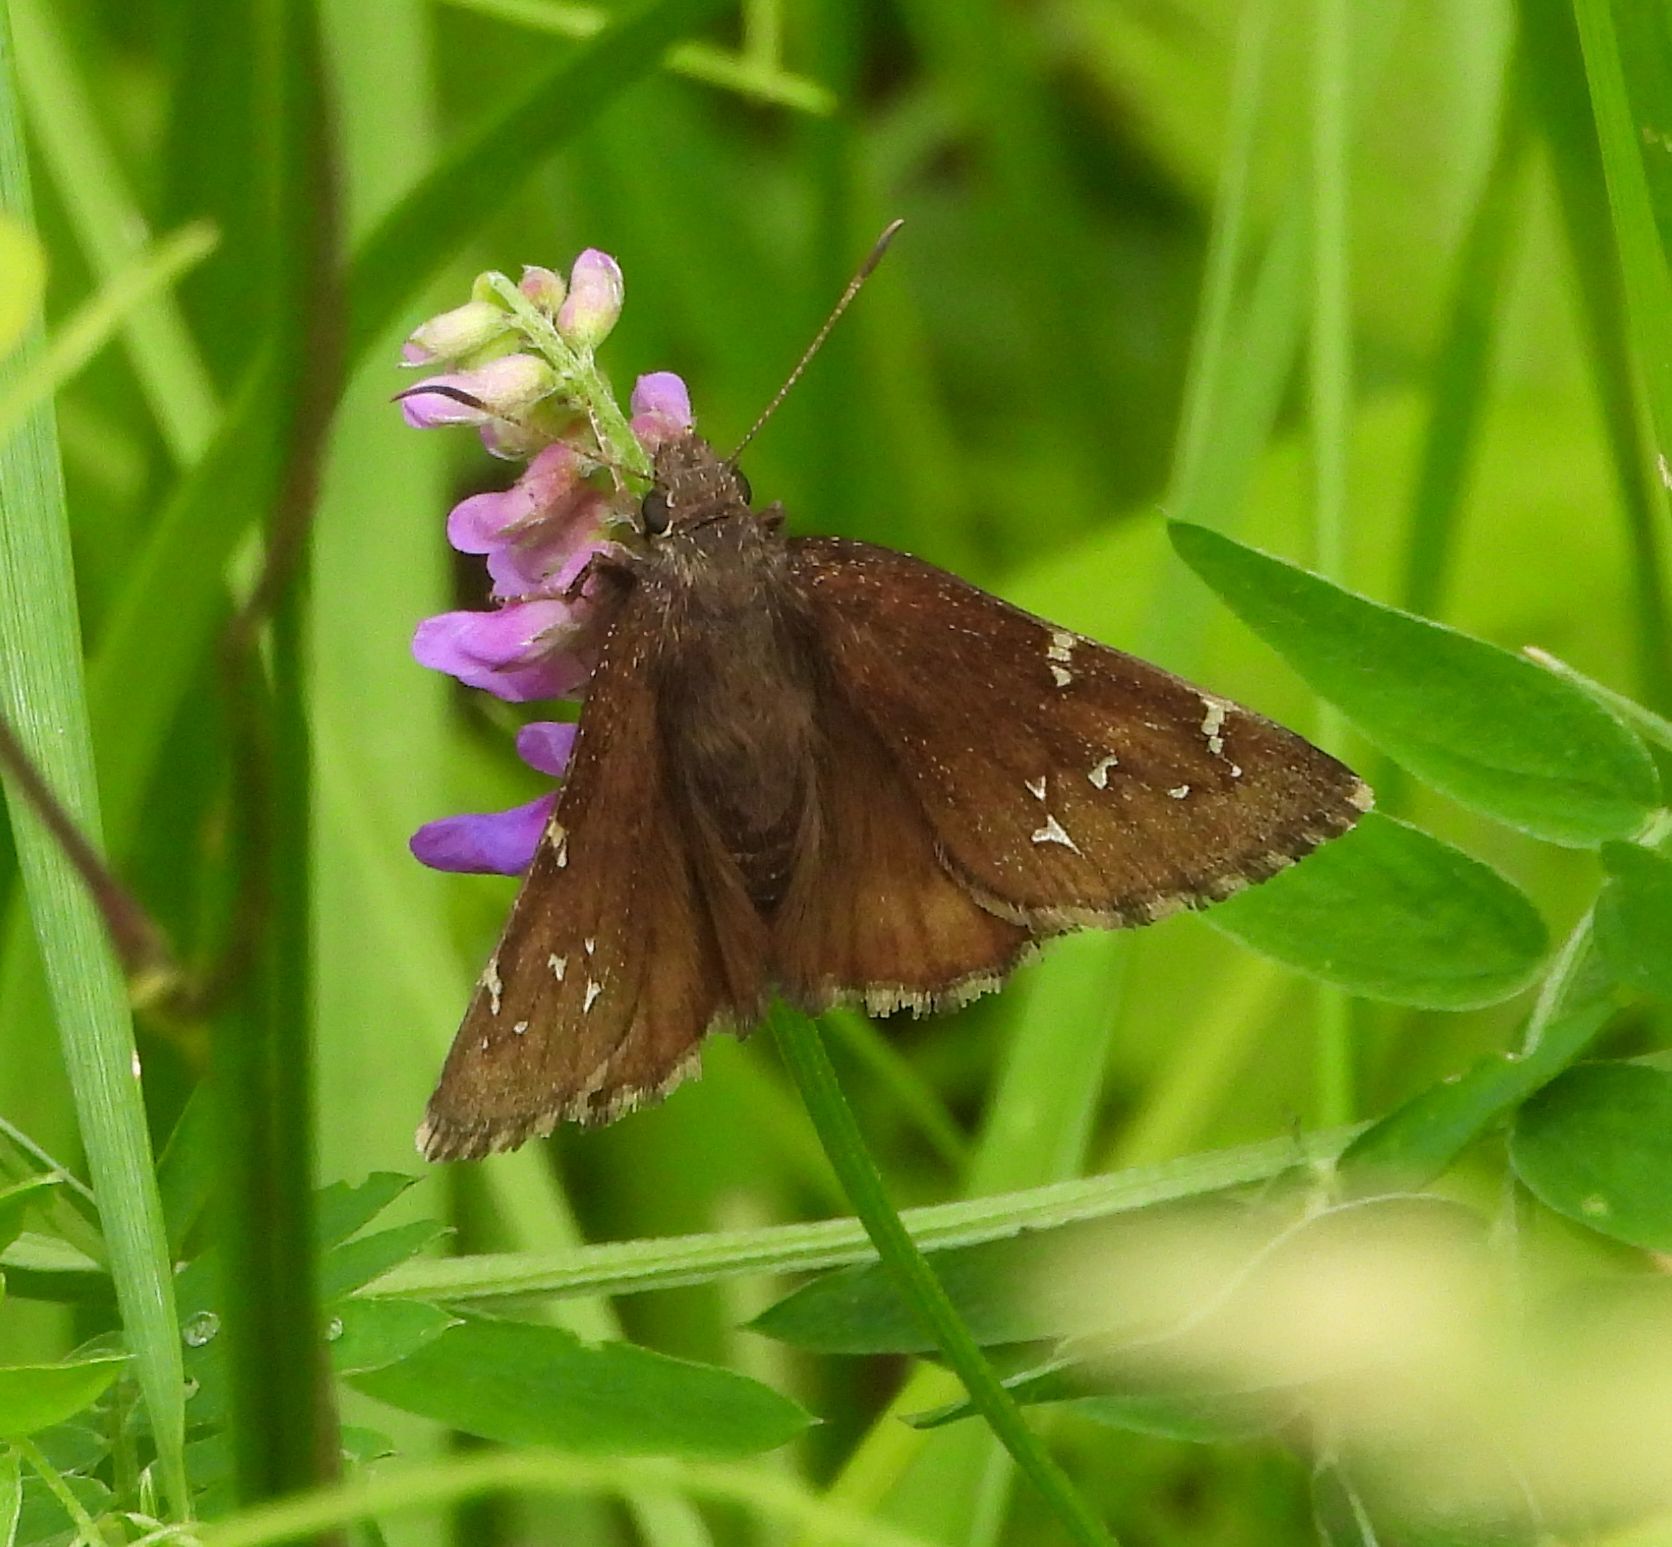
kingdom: Animalia
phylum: Arthropoda
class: Insecta
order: Lepidoptera
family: Hesperiidae
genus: Thorybes
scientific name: Thorybes pylades
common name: Northern cloudywing
